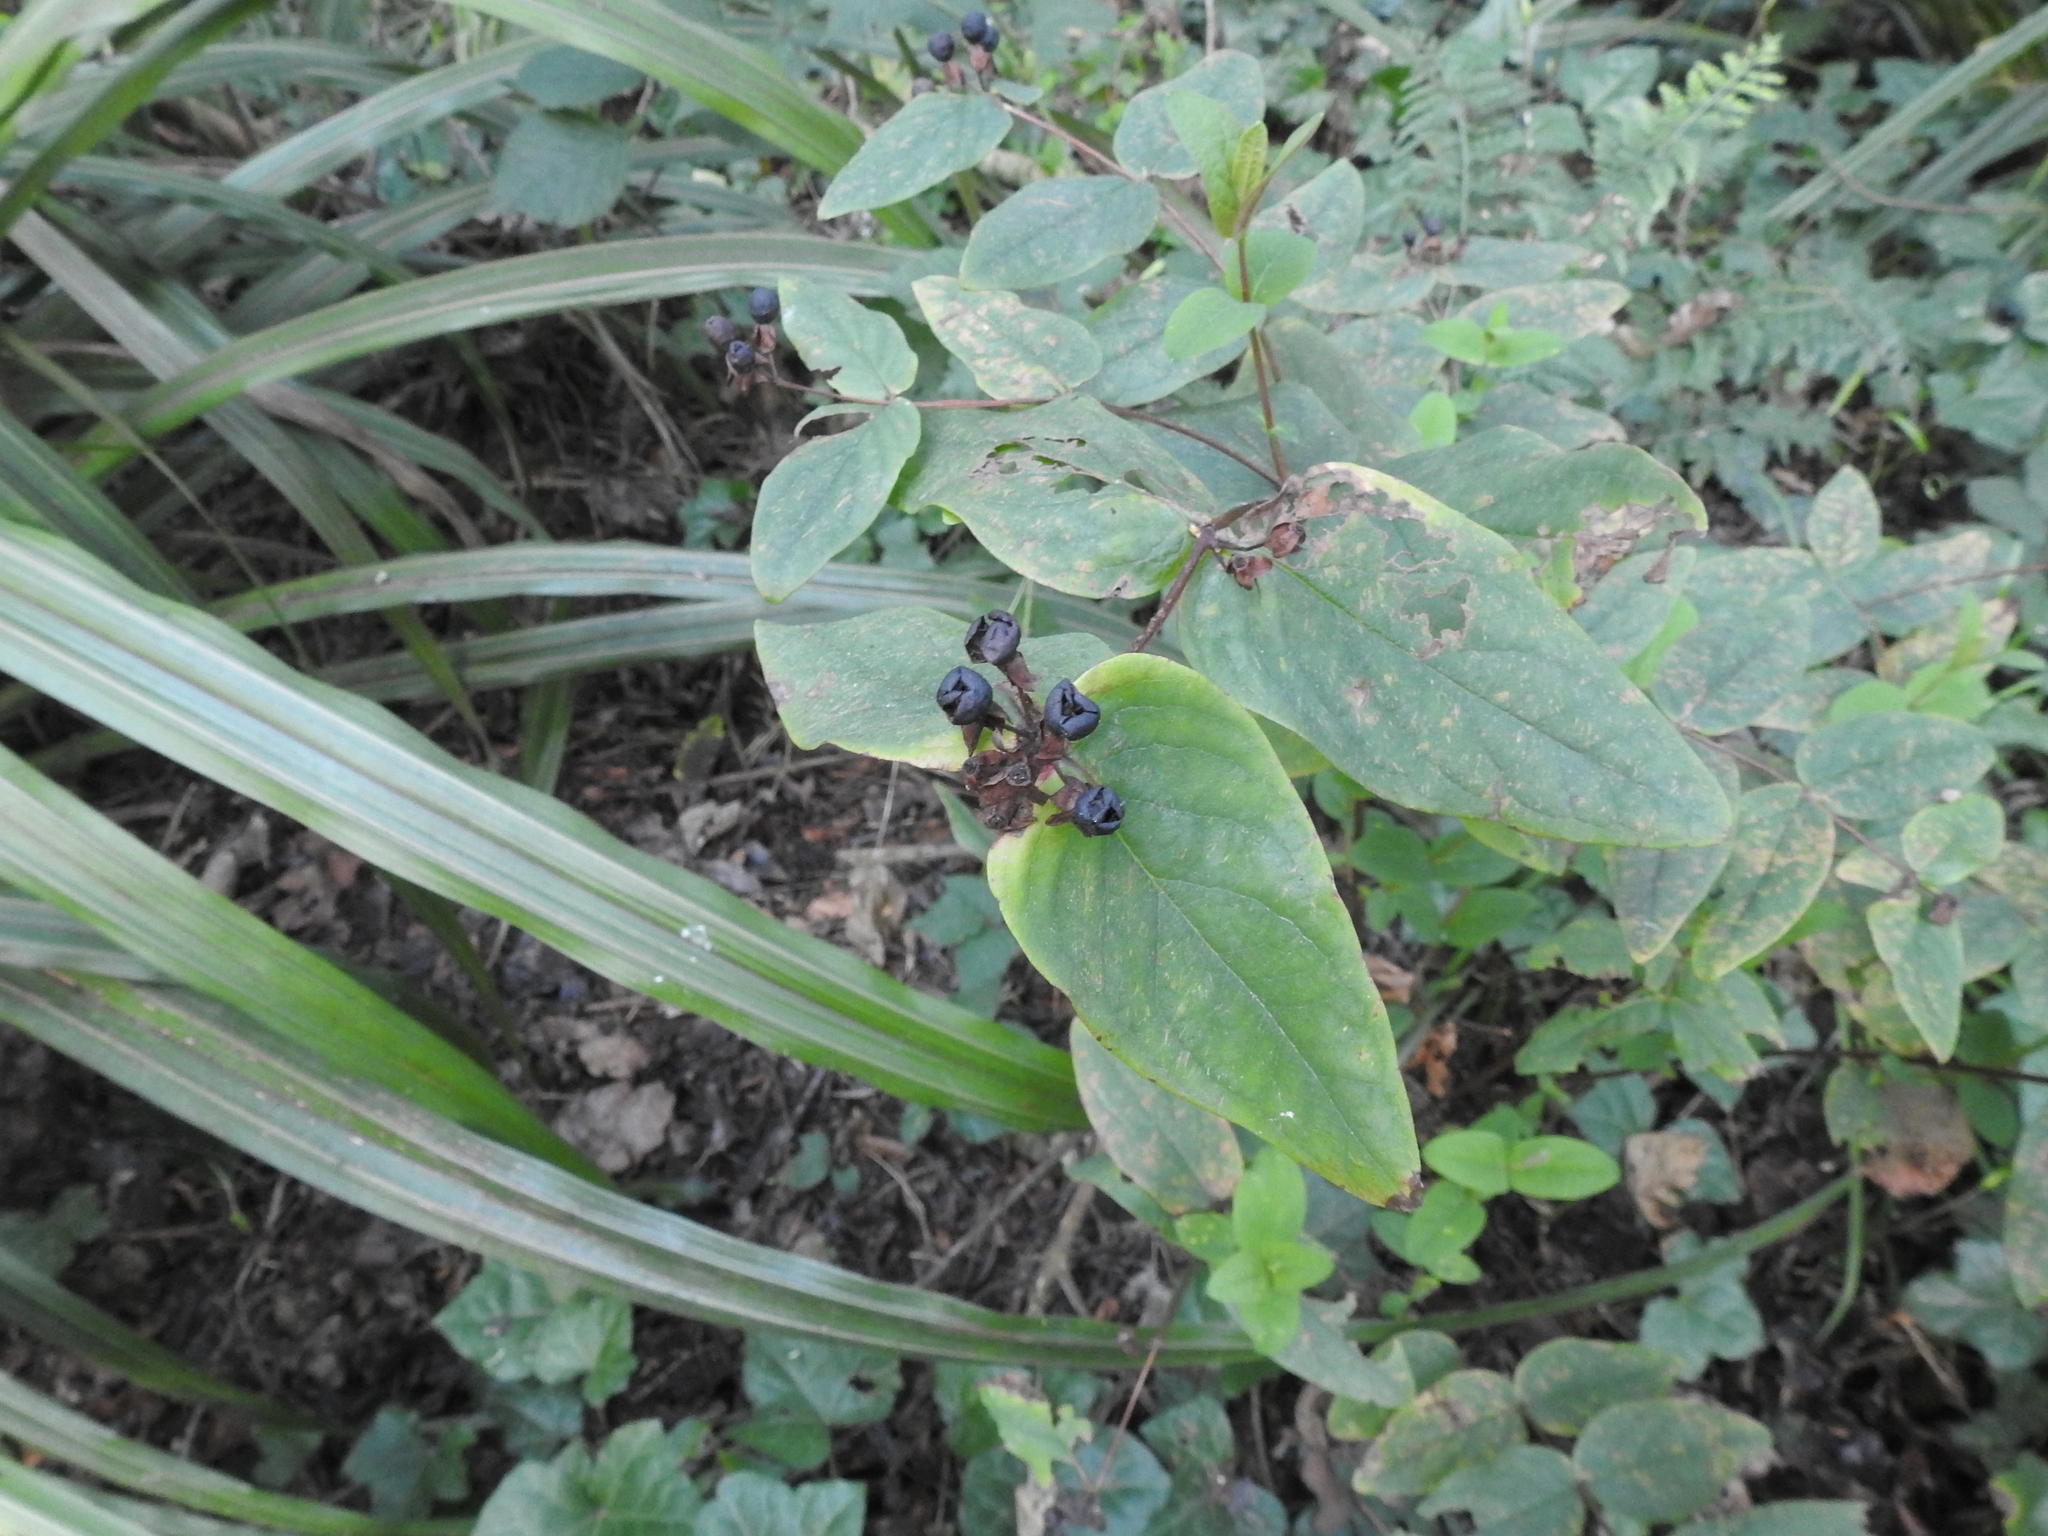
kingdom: Plantae
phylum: Tracheophyta
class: Magnoliopsida
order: Malpighiales
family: Hypericaceae
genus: Hypericum
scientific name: Hypericum androsaemum
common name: Sweet-amber
